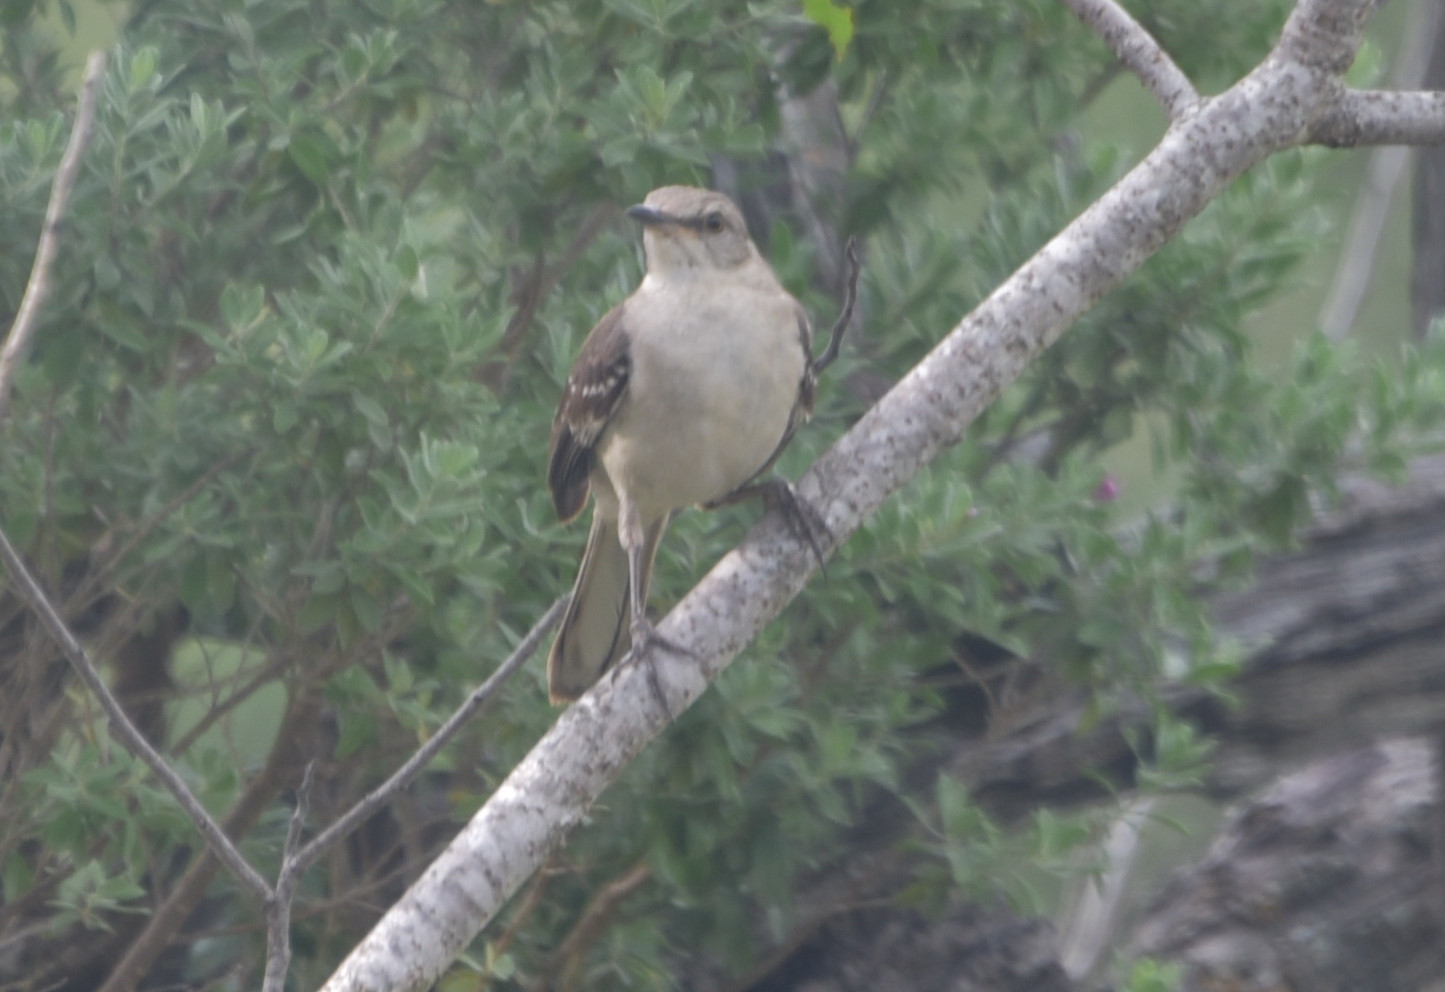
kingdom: Animalia
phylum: Chordata
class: Aves
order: Passeriformes
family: Mimidae
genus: Mimus
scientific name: Mimus polyglottos
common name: Northern mockingbird
